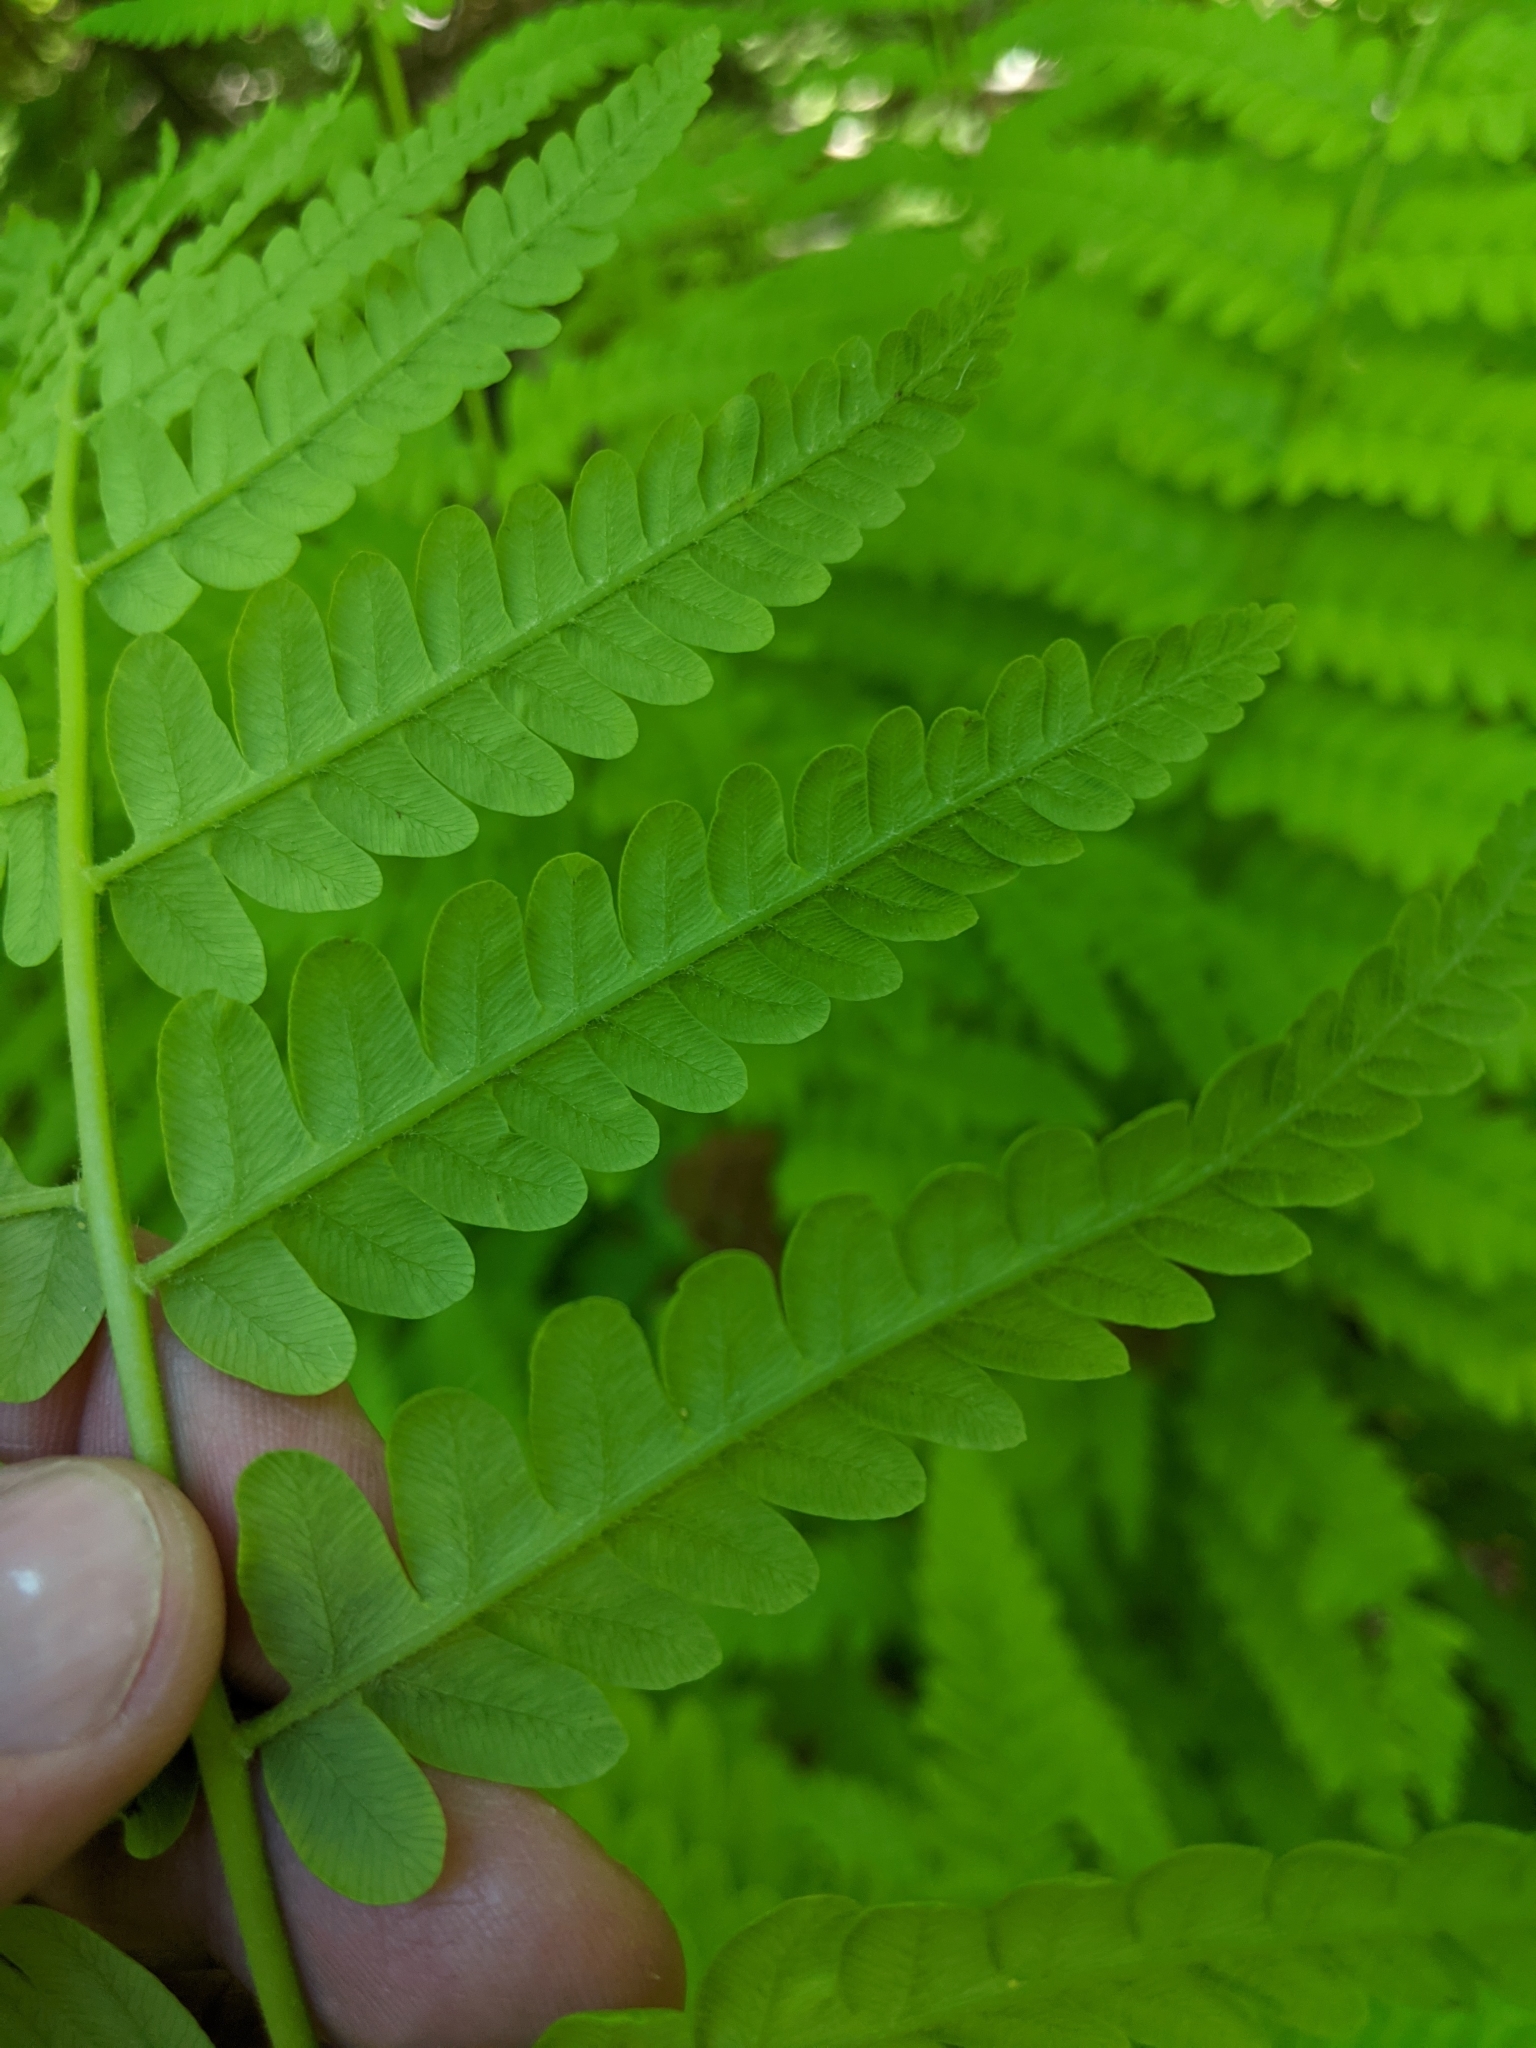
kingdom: Plantae
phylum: Tracheophyta
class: Polypodiopsida
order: Osmundales
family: Osmundaceae
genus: Claytosmunda
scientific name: Claytosmunda claytoniana
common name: Clayton's fern
